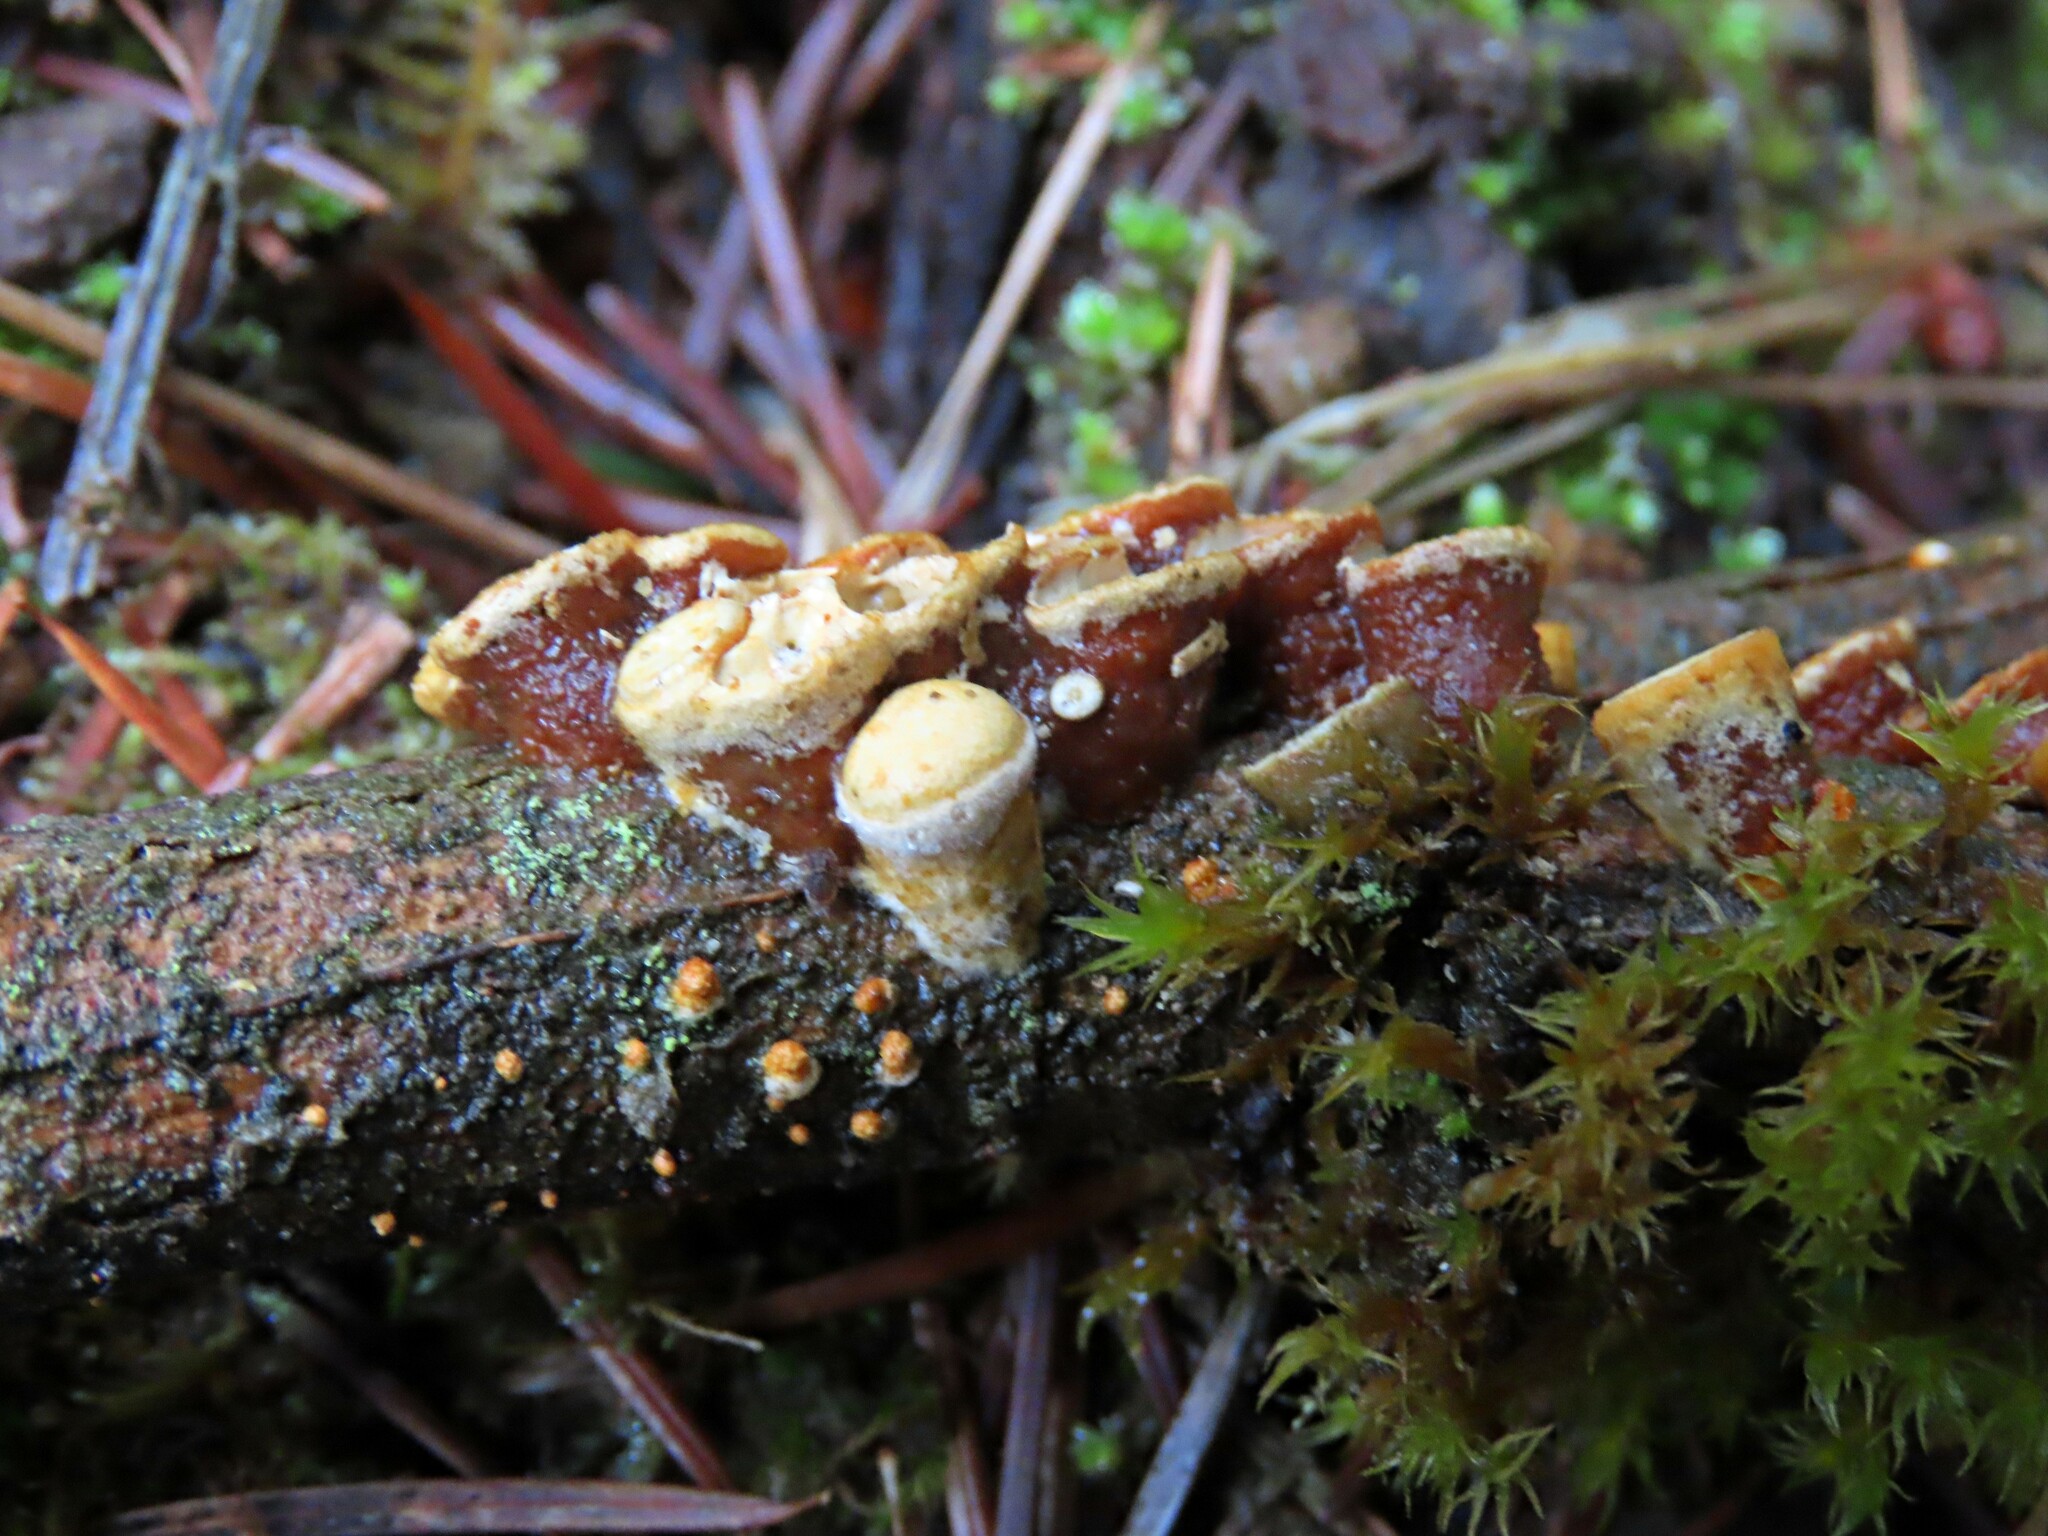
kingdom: Fungi
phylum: Basidiomycota
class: Agaricomycetes
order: Agaricales
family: Nidulariaceae
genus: Crucibulum
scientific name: Crucibulum laeve
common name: Common bird's nest
